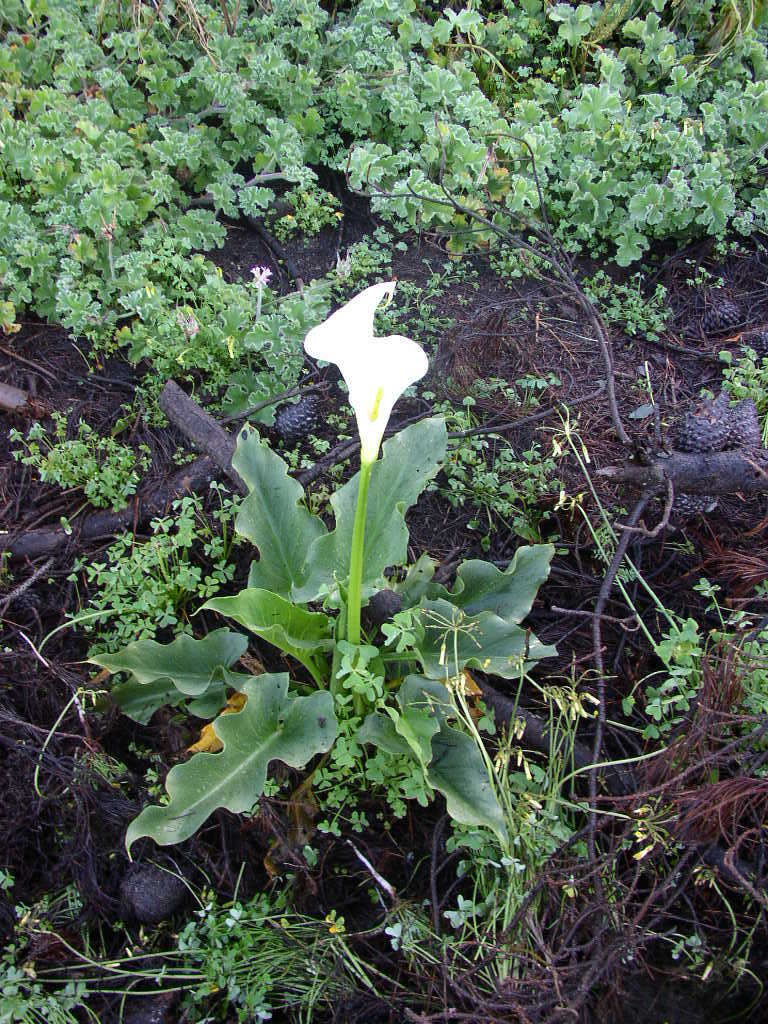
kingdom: Plantae
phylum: Tracheophyta
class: Liliopsida
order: Alismatales
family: Araceae
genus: Zantedeschia
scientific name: Zantedeschia aethiopica
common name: Altar-lily
